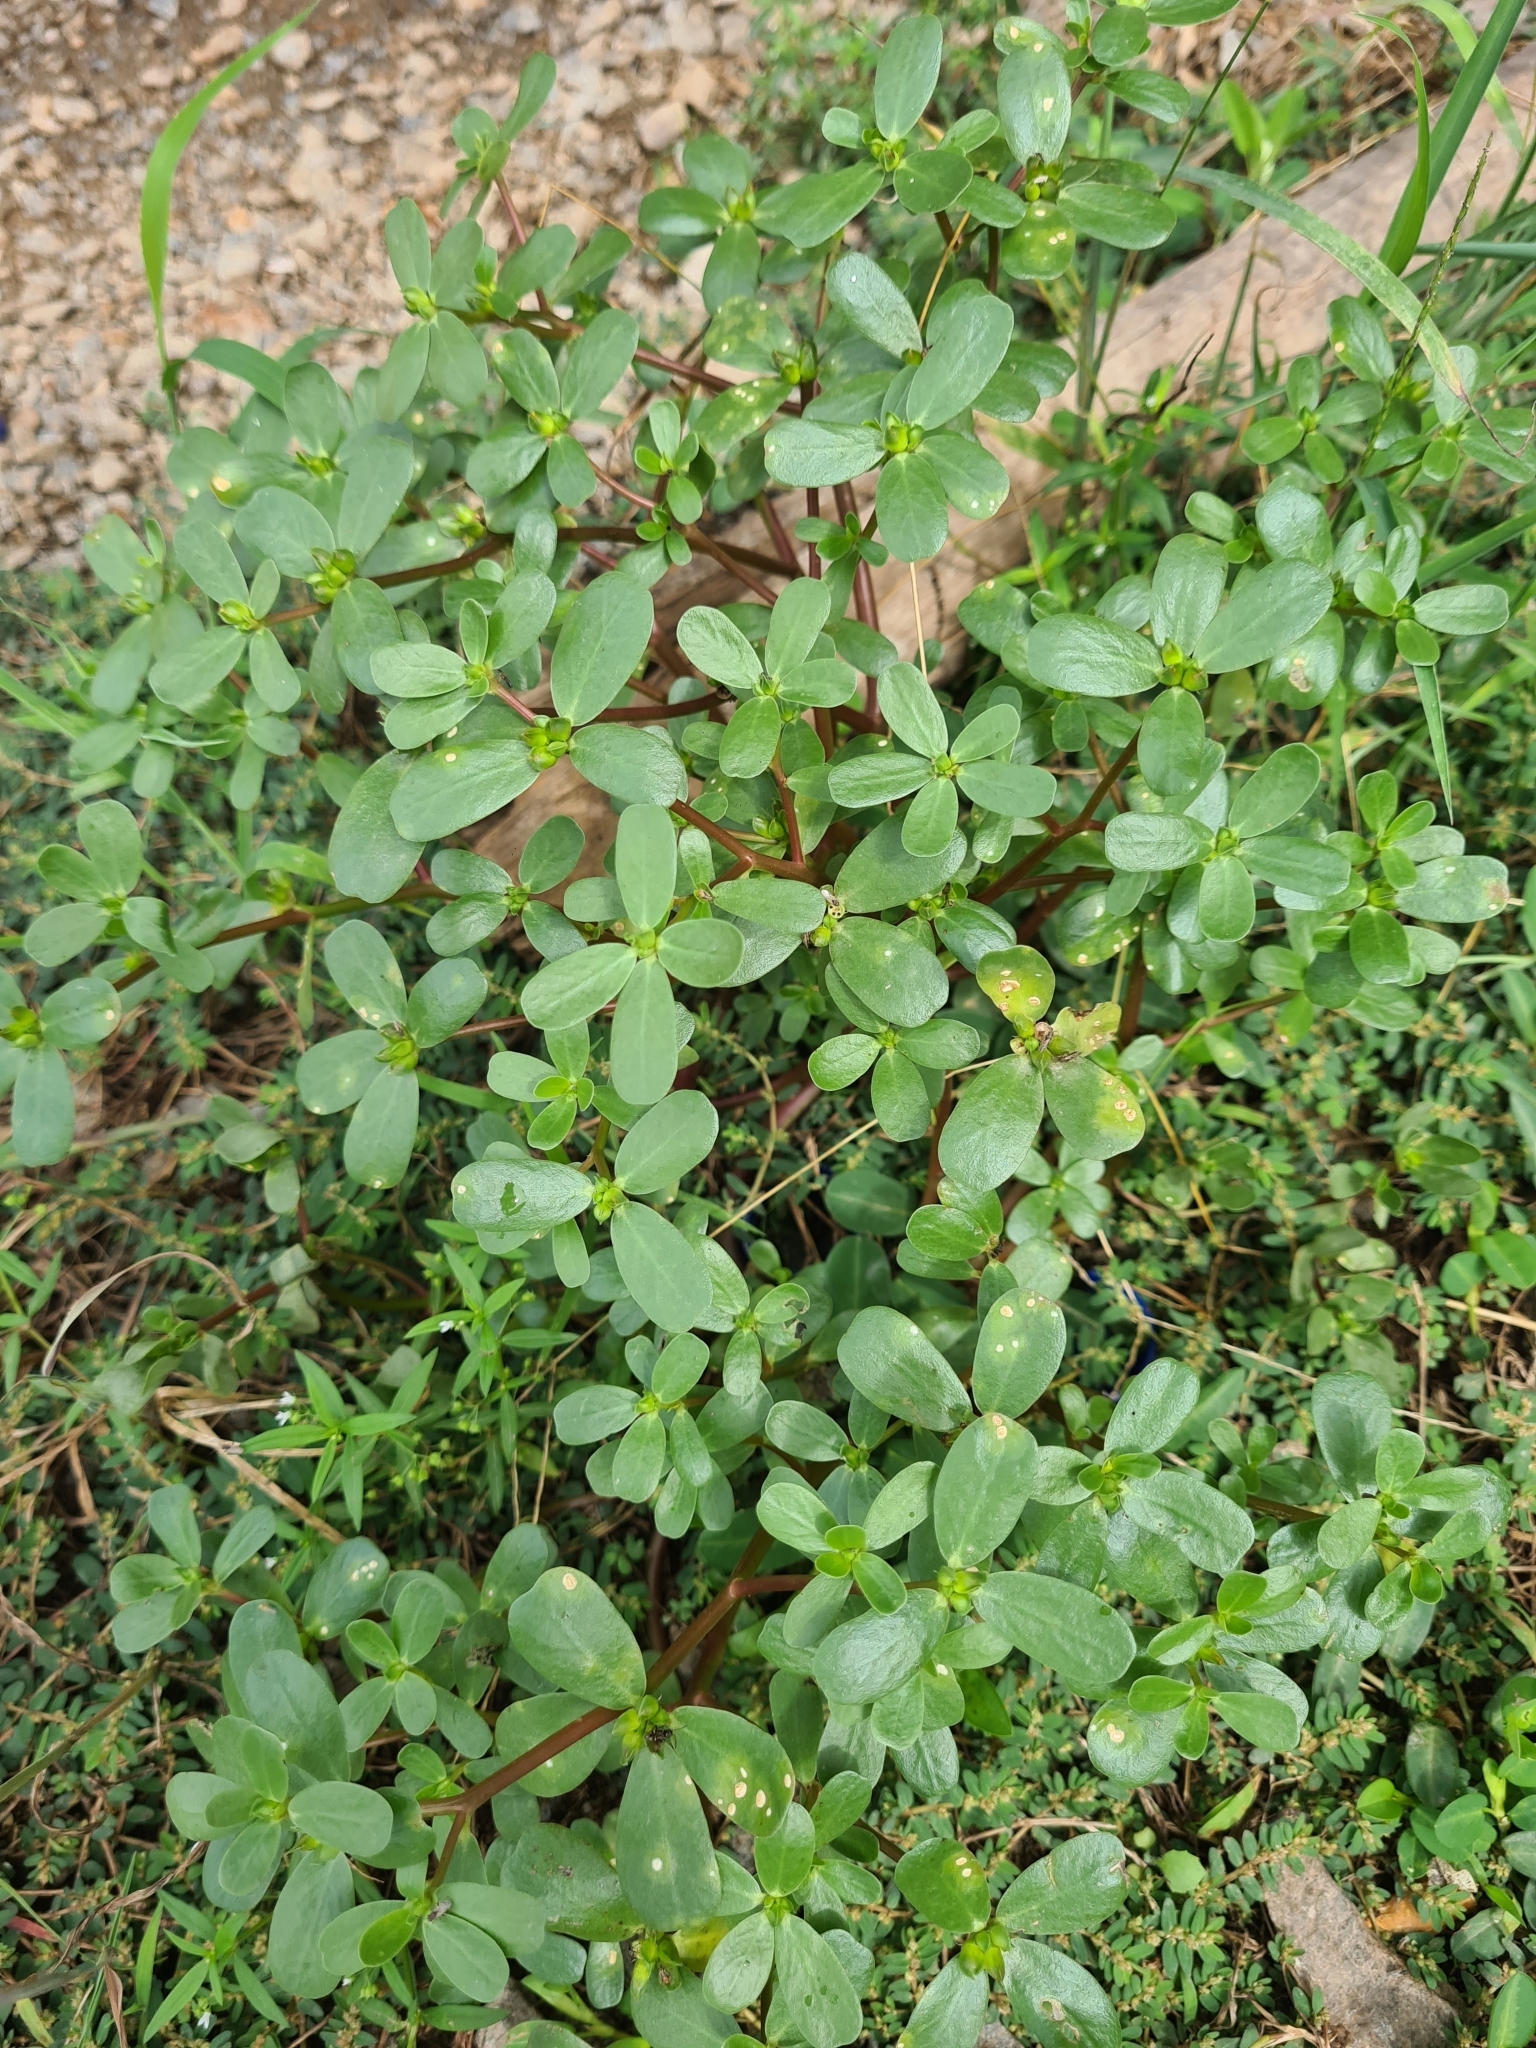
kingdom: Plantae
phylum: Tracheophyta
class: Magnoliopsida
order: Caryophyllales
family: Portulacaceae
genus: Portulaca
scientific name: Portulaca oleracea
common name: Common purslane
